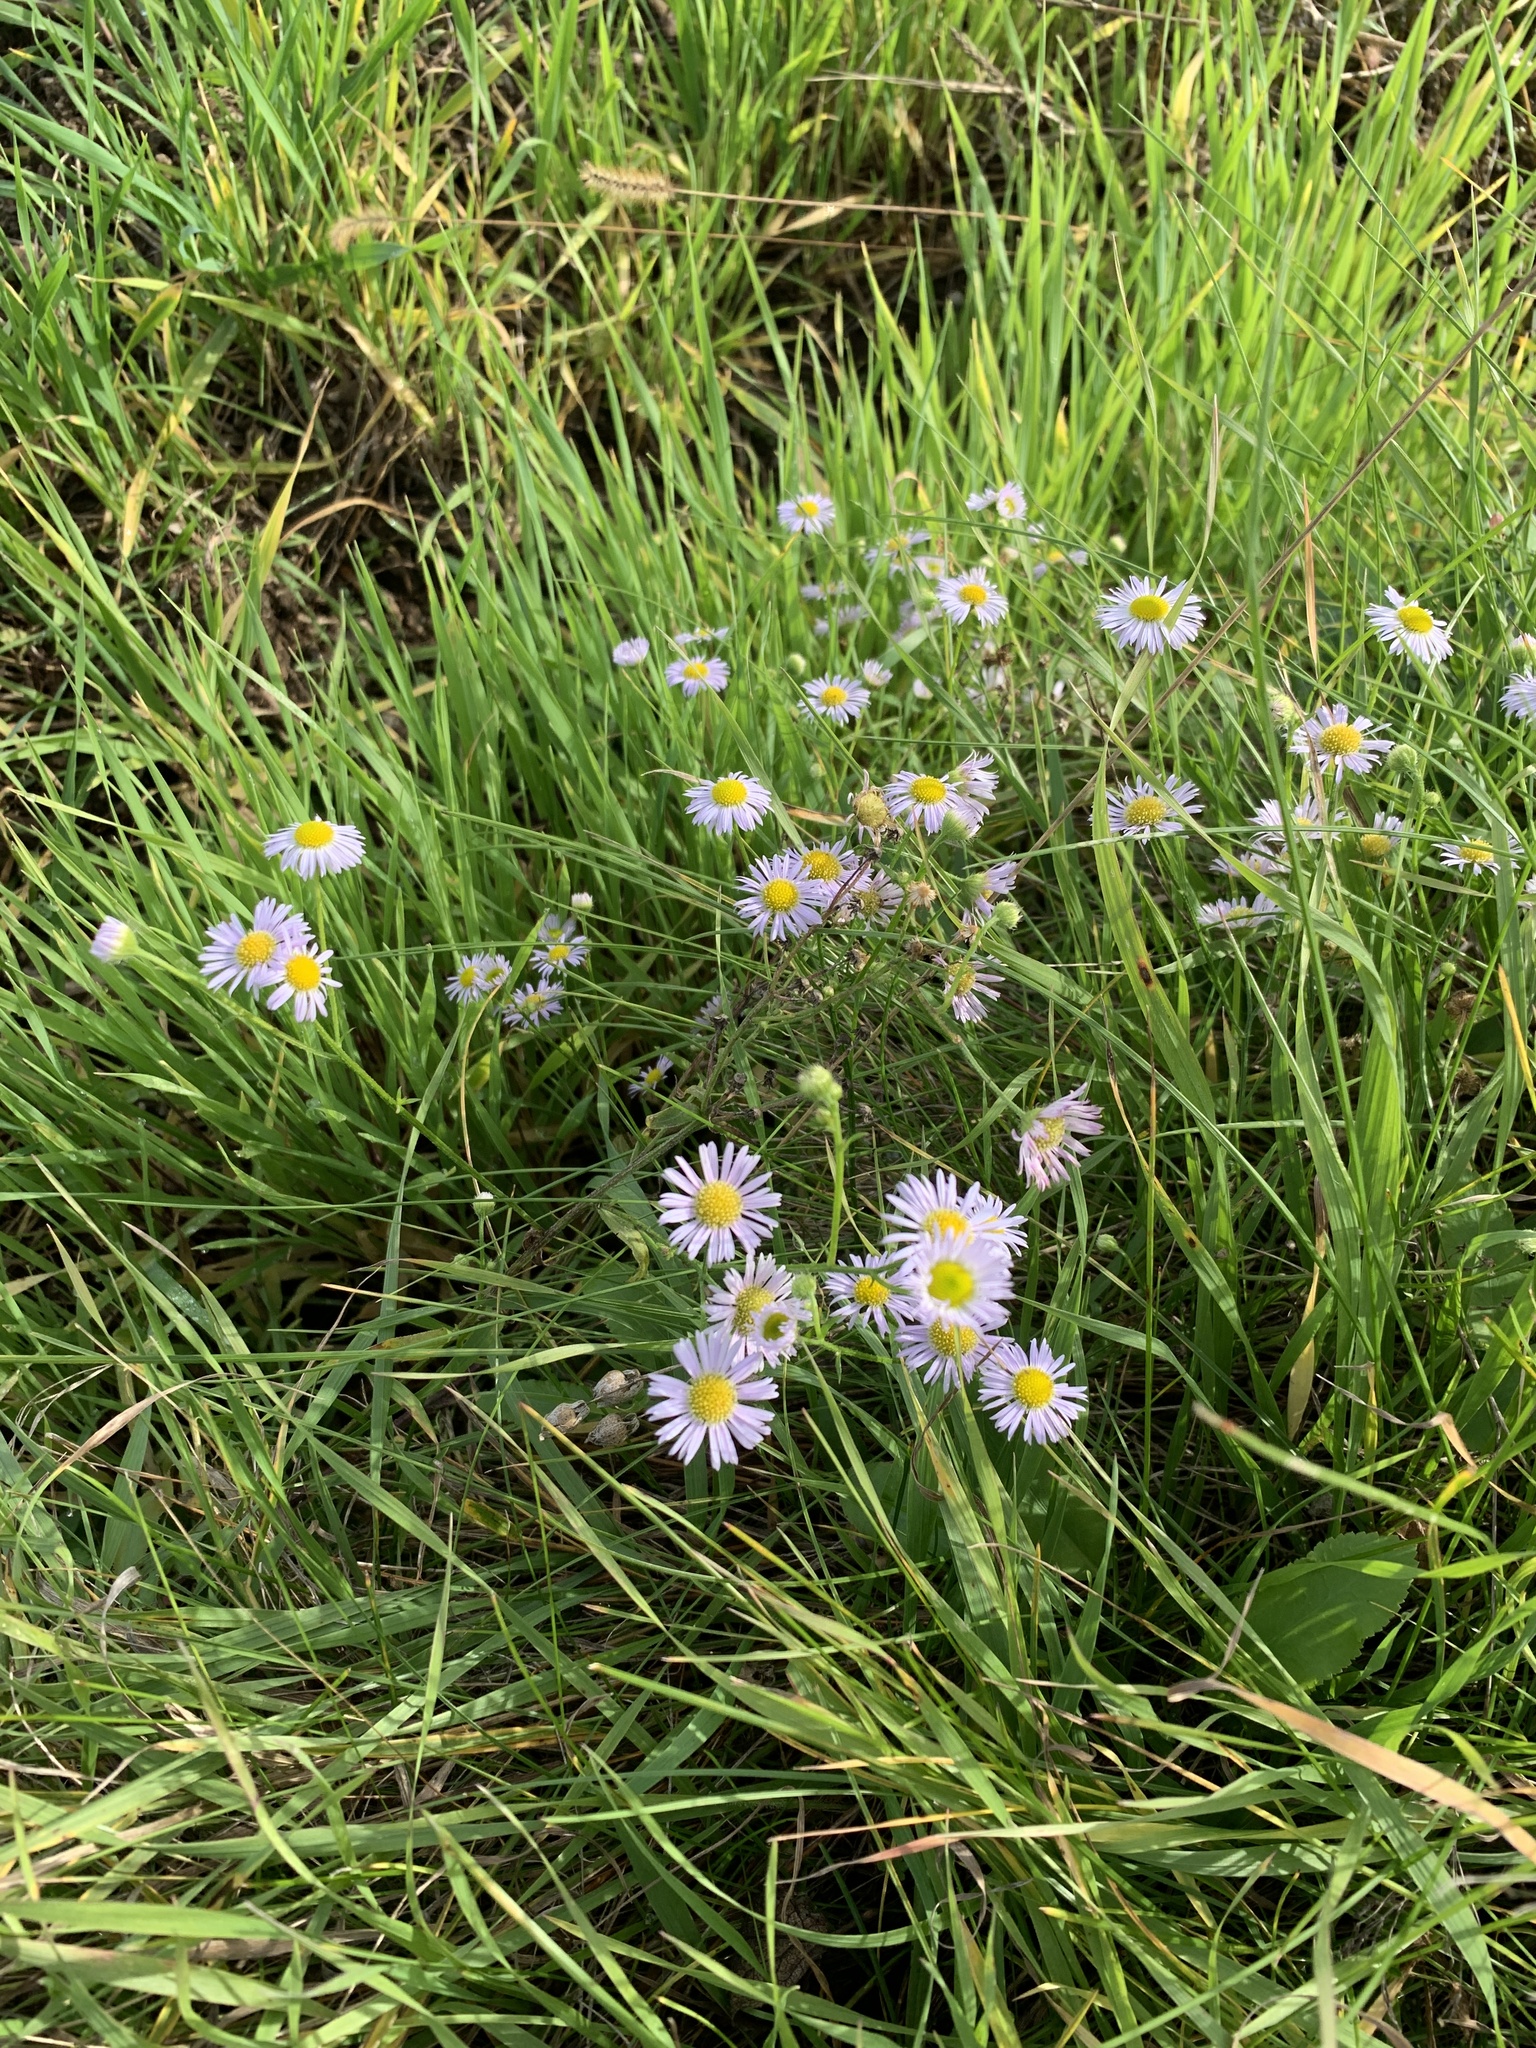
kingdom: Plantae
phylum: Tracheophyta
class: Magnoliopsida
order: Asterales
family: Asteraceae
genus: Erigeron
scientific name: Erigeron annuus
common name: Tall fleabane
